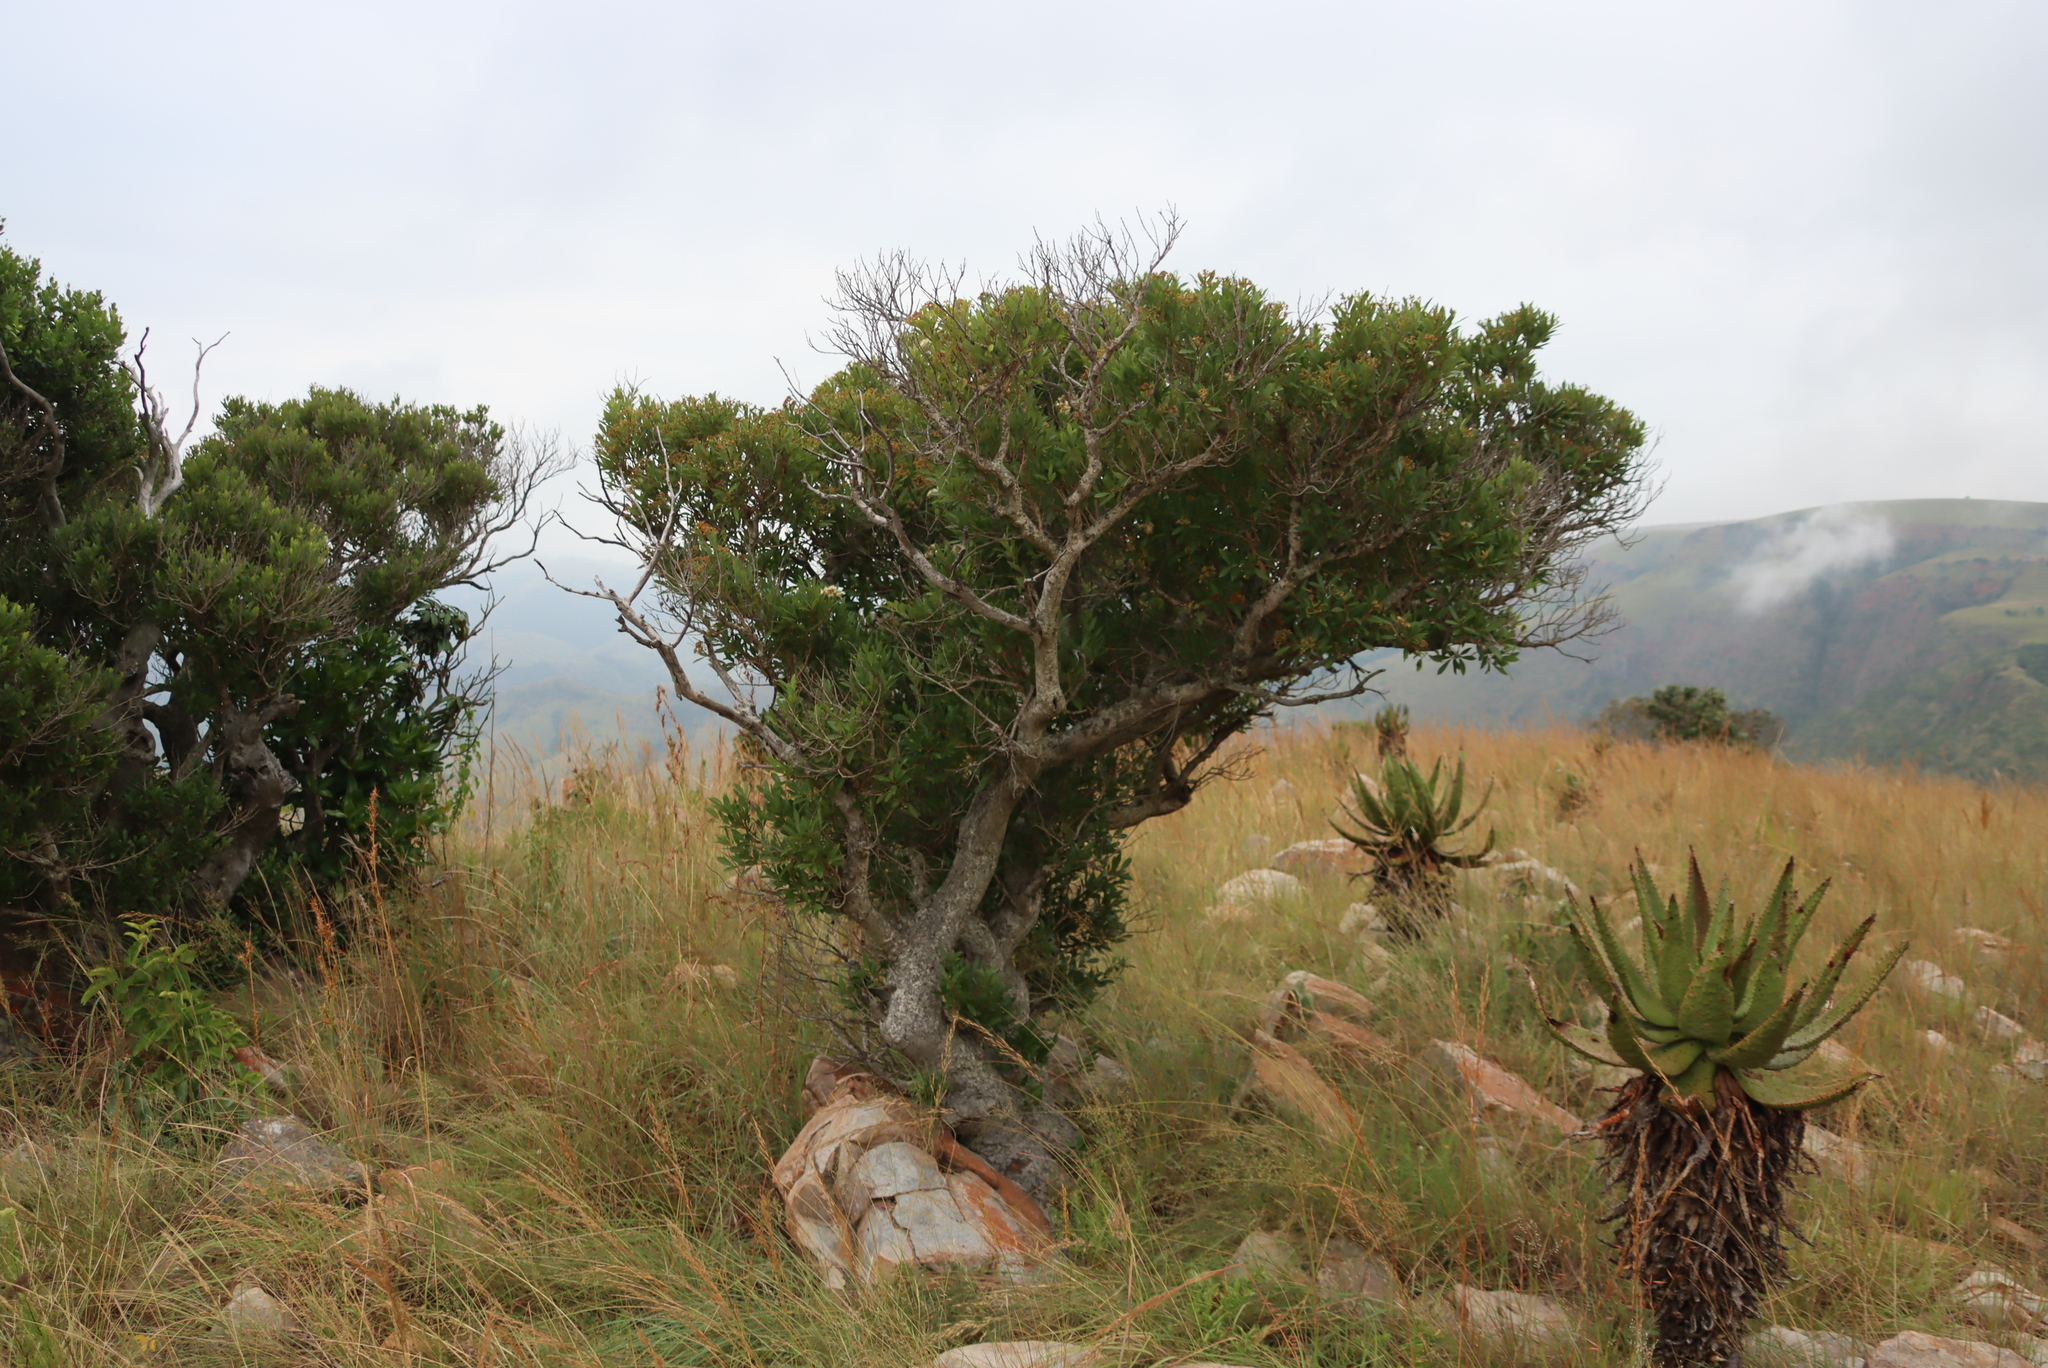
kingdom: Plantae
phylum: Tracheophyta
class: Liliopsida
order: Asparagales
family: Asphodelaceae
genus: Aloe
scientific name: Aloe marlothii
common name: Flat-flowered aloe
